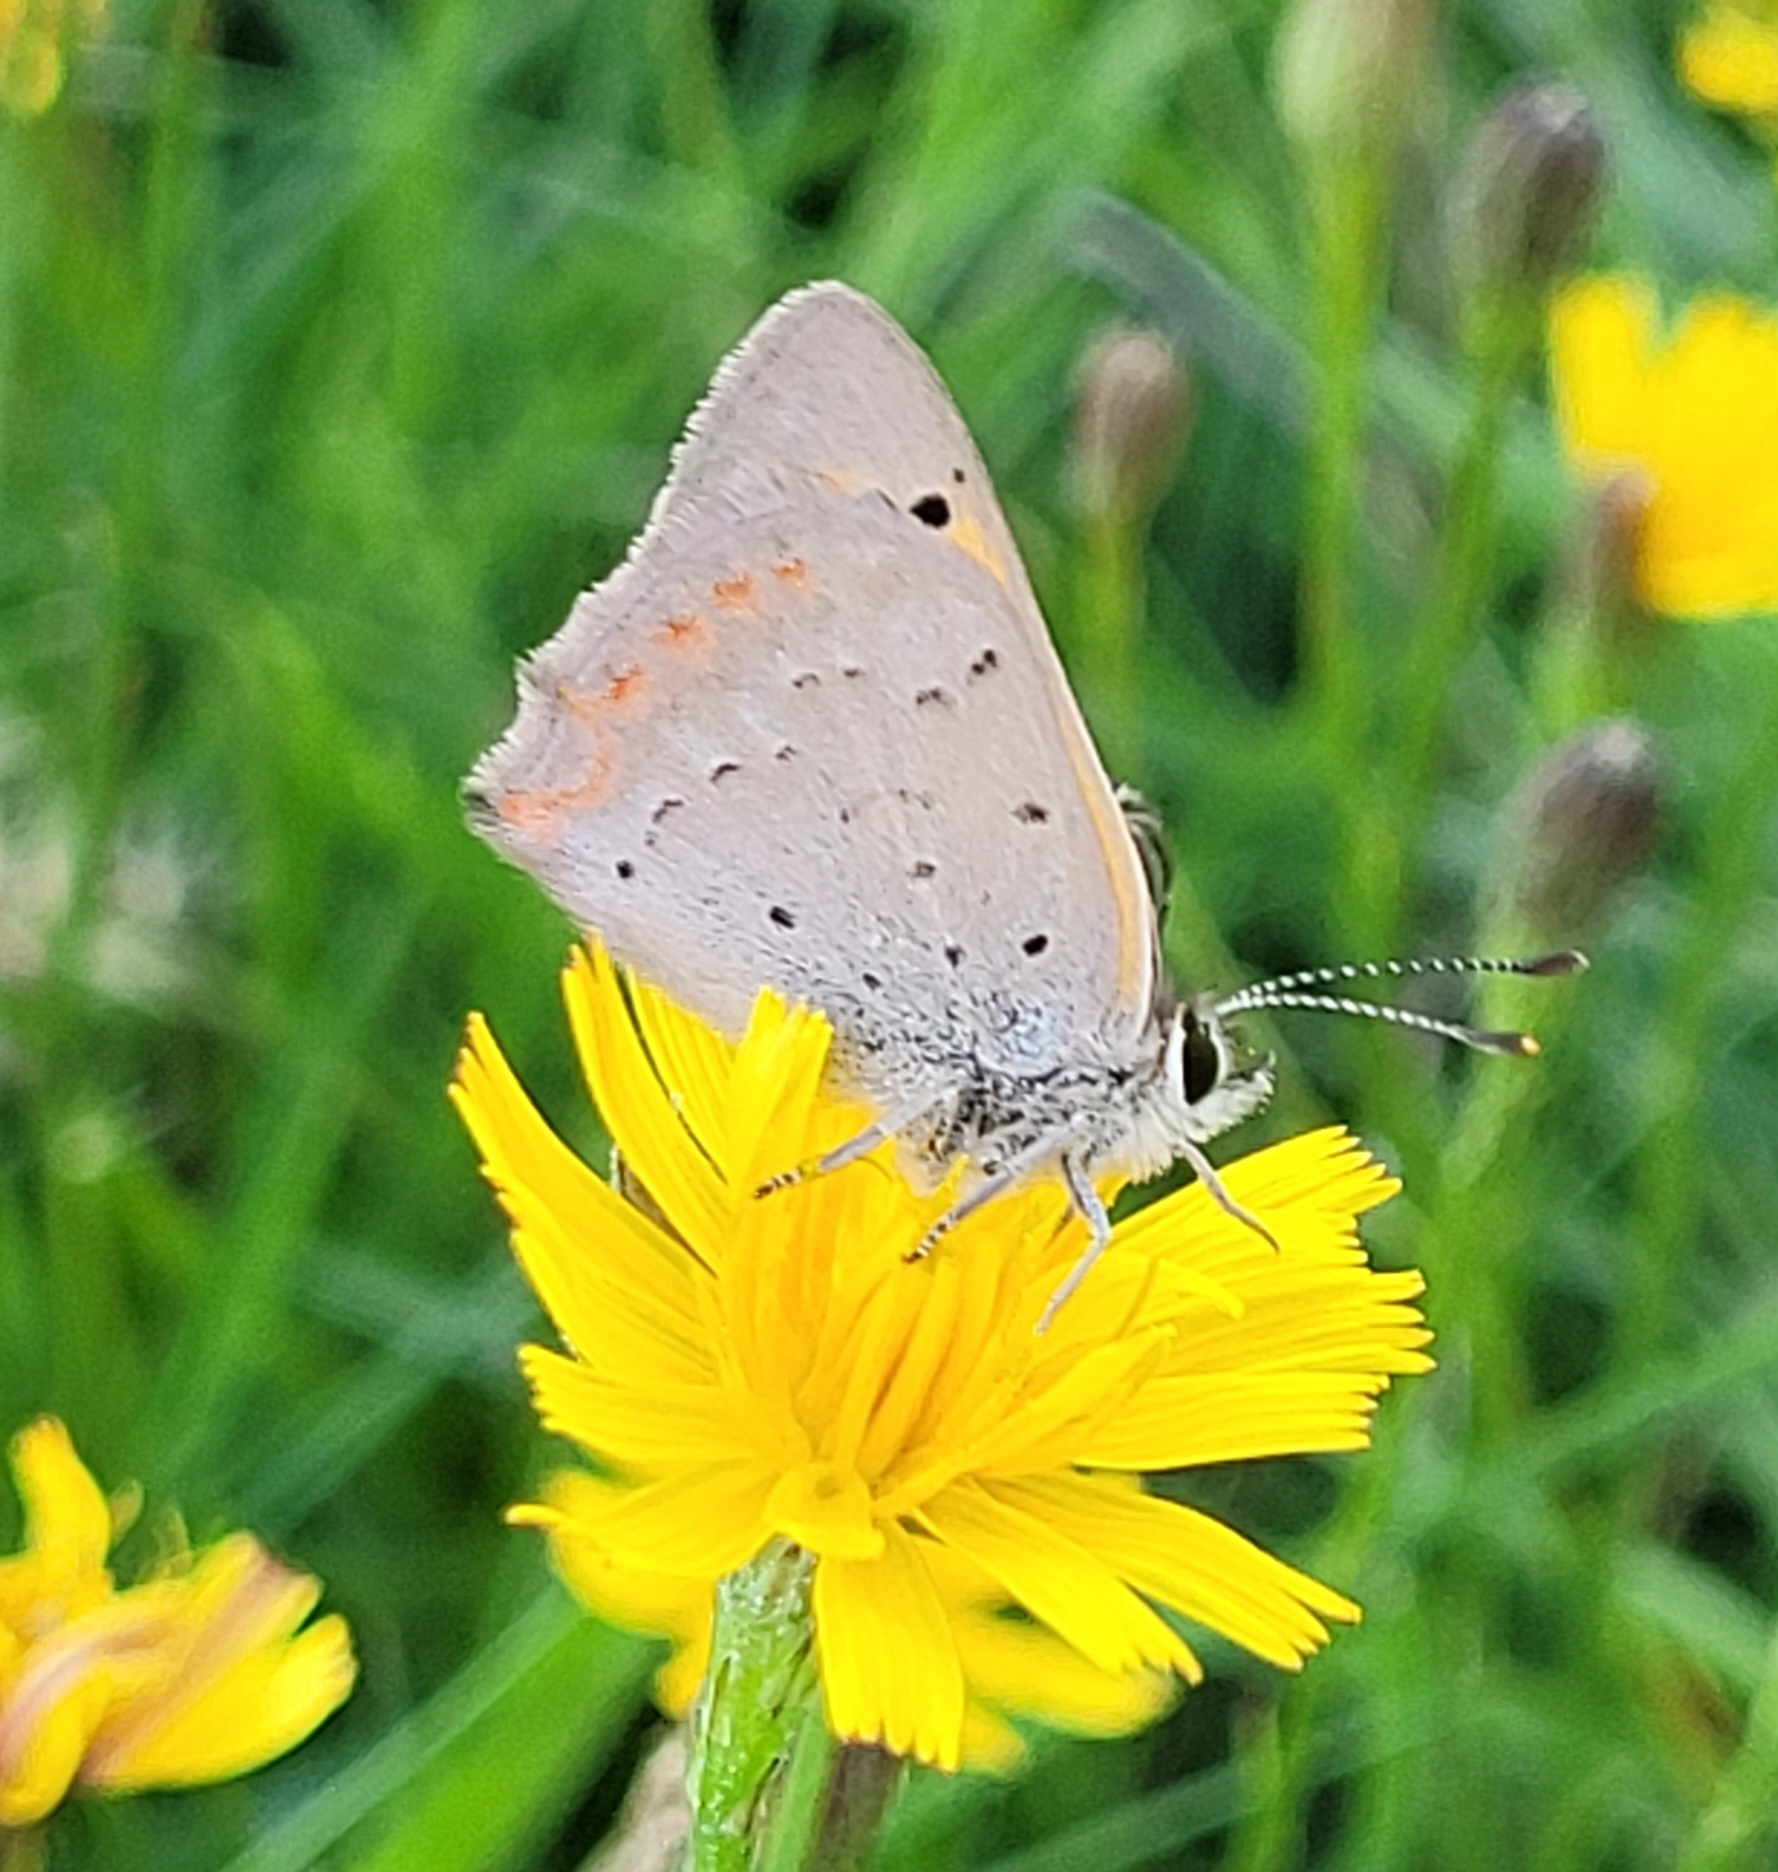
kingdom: Animalia
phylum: Arthropoda
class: Insecta
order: Lepidoptera
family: Lycaenidae
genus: Lycaena
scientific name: Lycaena phlaeas
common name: Small copper
